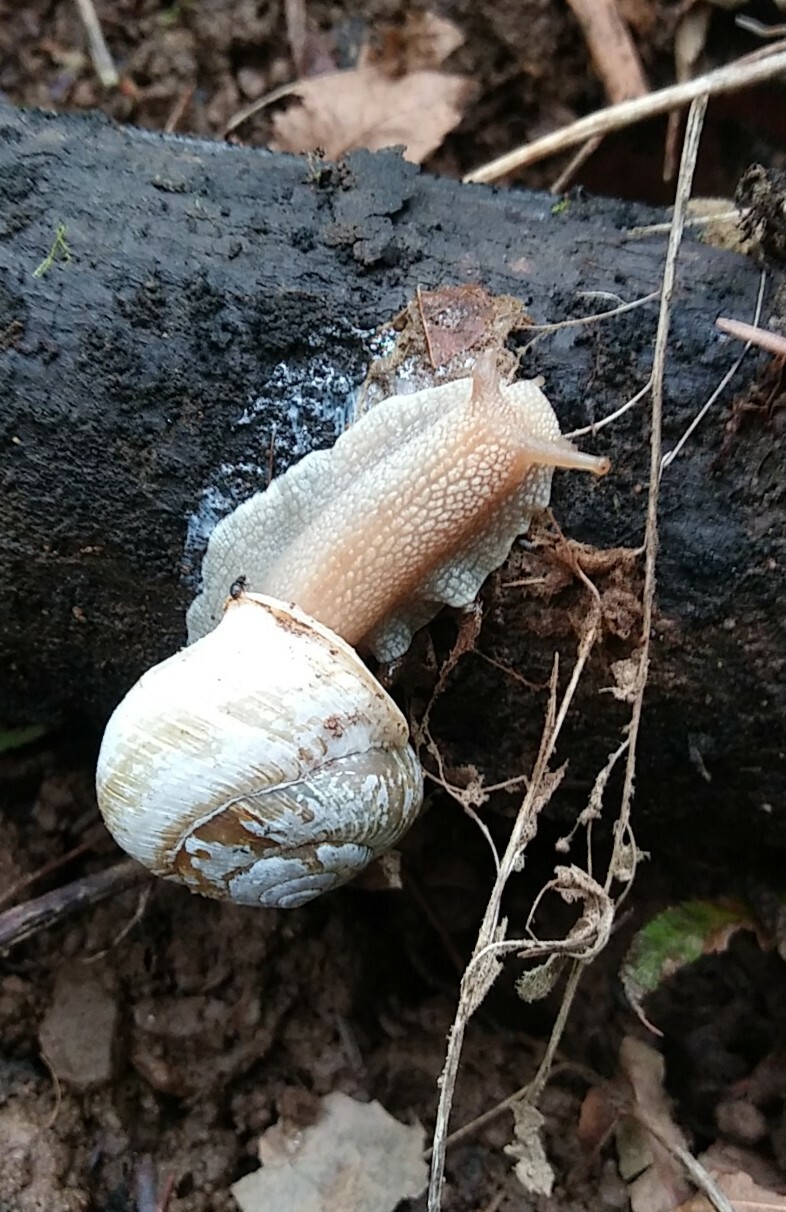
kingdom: Animalia
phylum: Mollusca
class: Gastropoda
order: Stylommatophora
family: Polygyridae
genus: Allogona
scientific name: Allogona townsendiana
